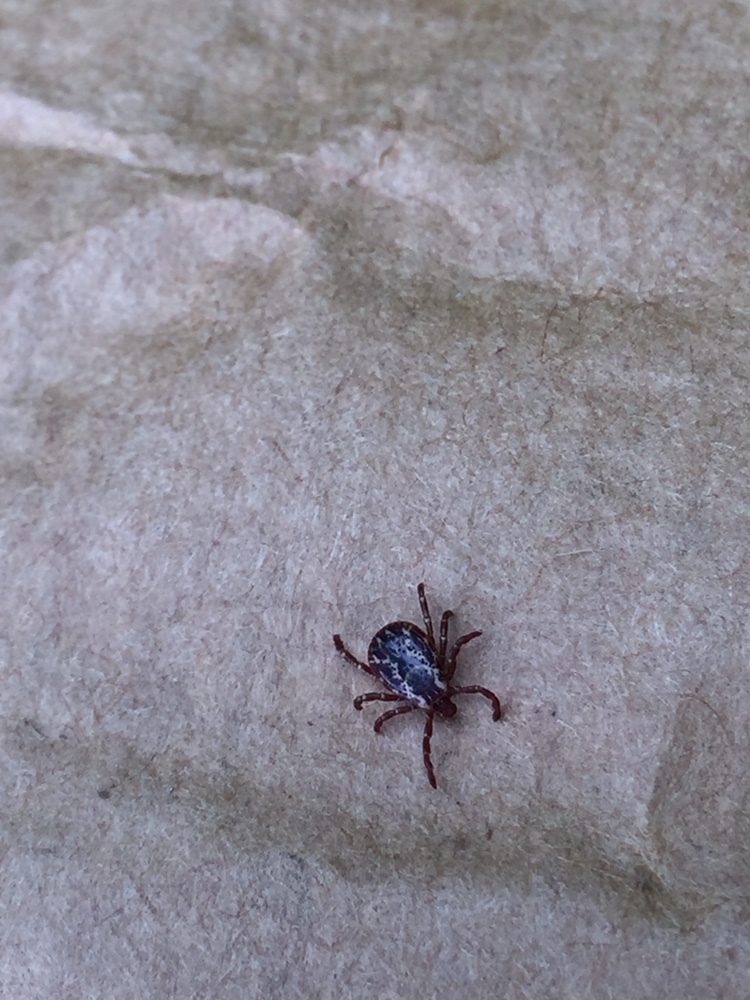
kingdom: Animalia
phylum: Arthropoda
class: Arachnida
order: Ixodida
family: Ixodidae
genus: Dermacentor
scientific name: Dermacentor variabilis
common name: American dog tick
